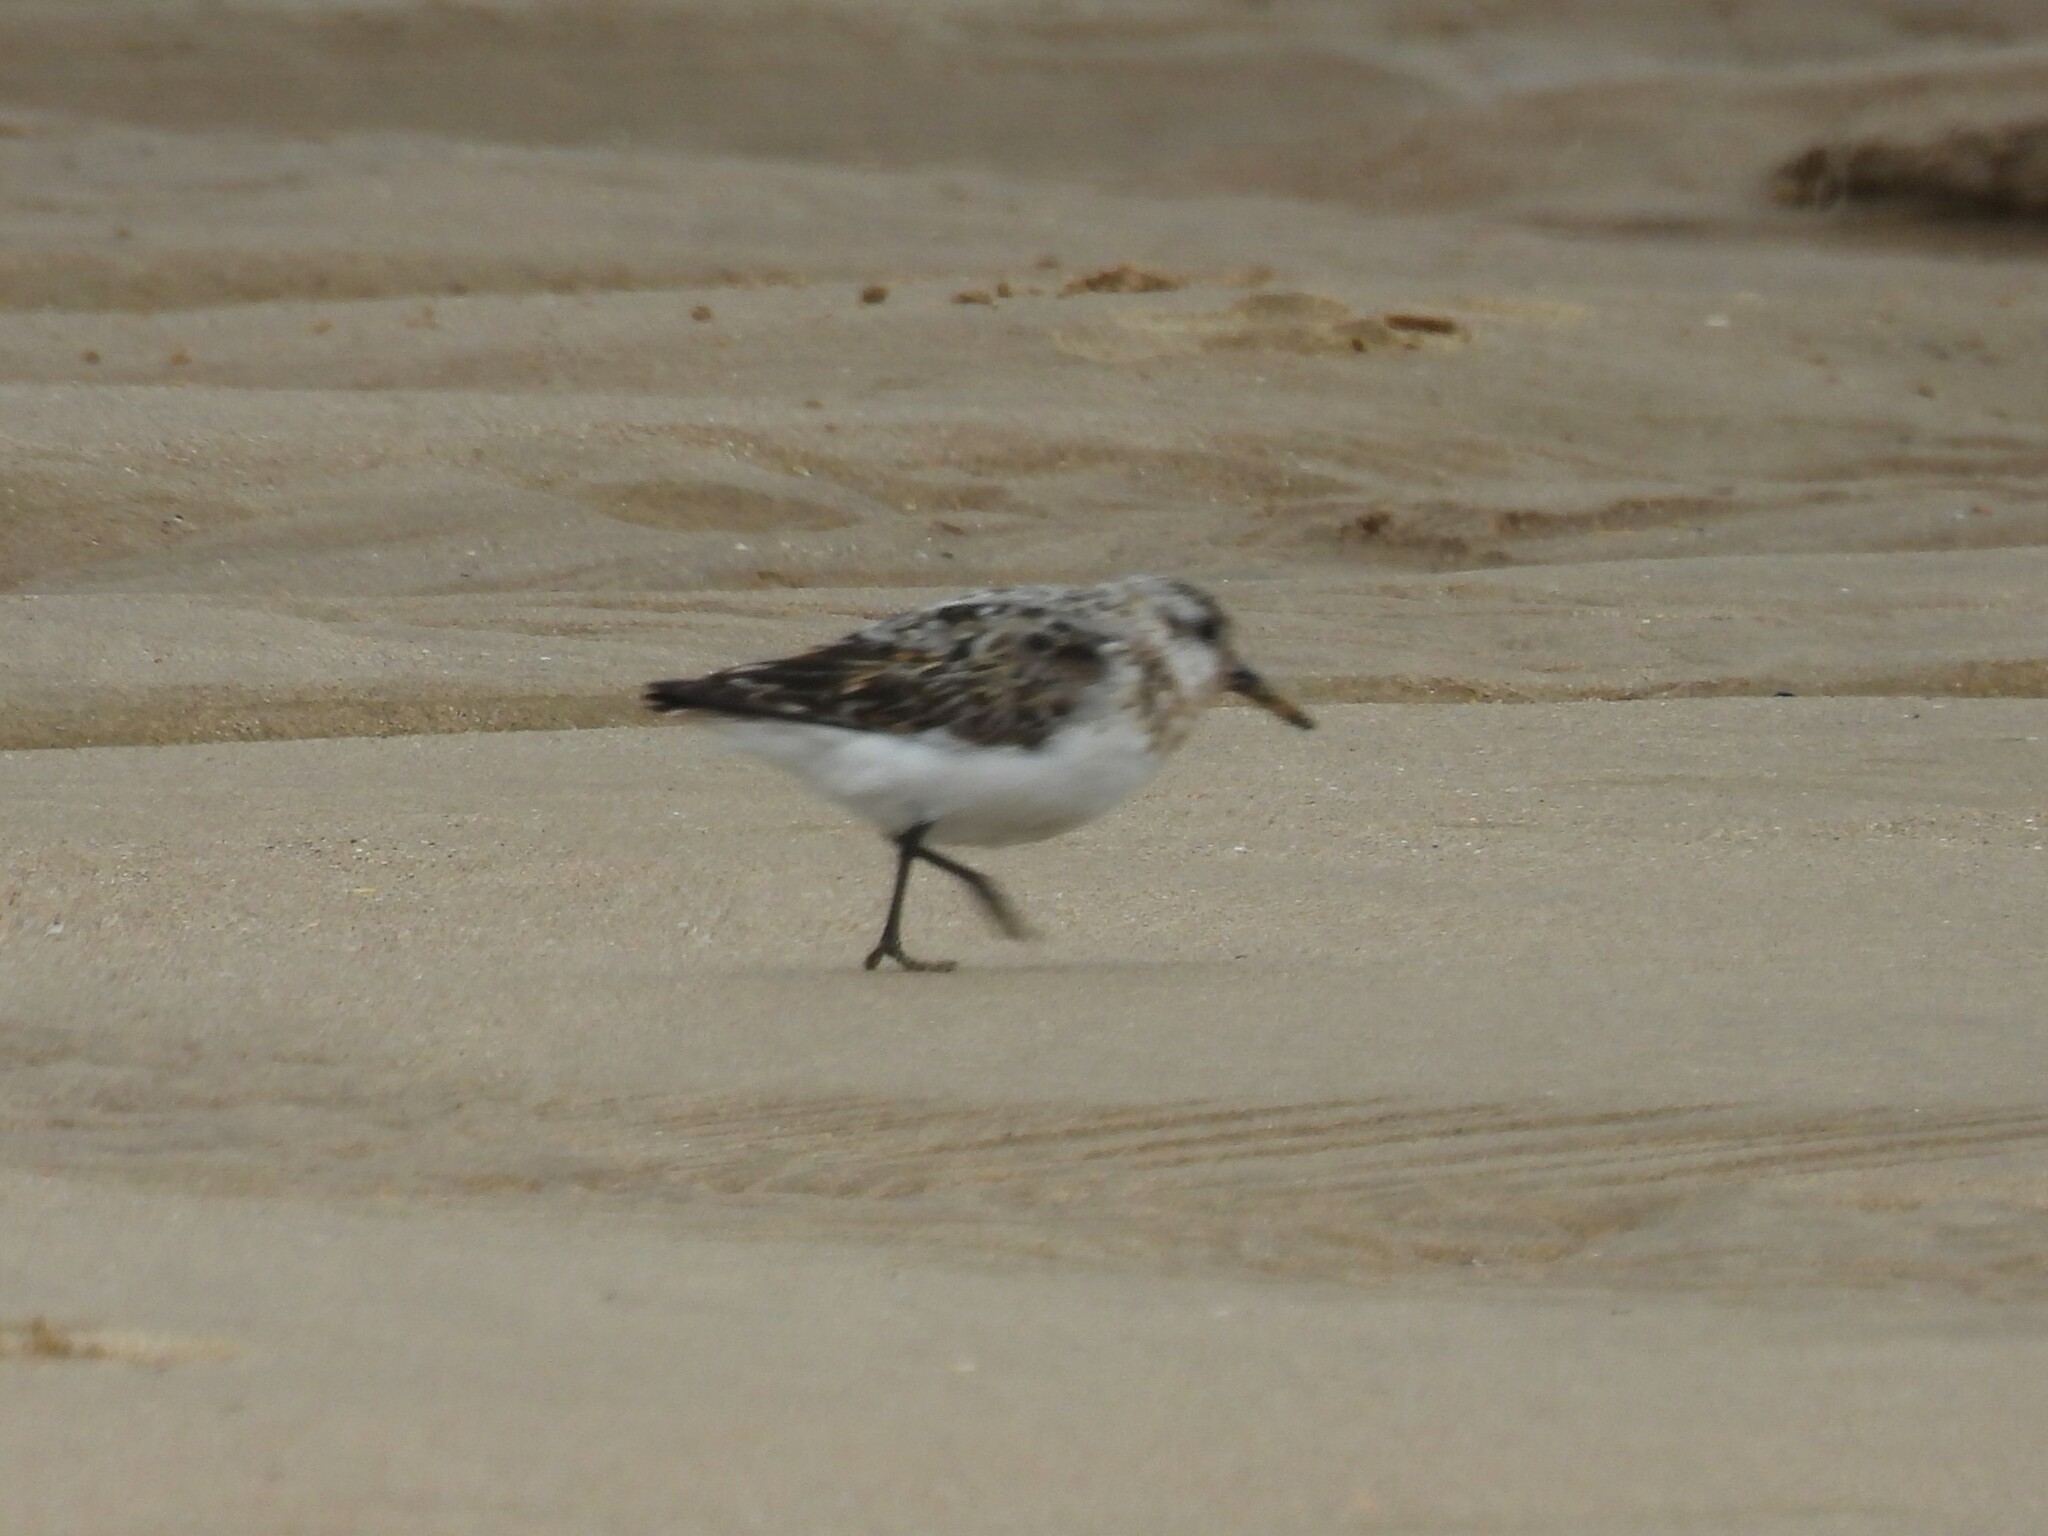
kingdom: Animalia
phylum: Chordata
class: Aves
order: Charadriiformes
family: Scolopacidae
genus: Calidris
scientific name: Calidris alba
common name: Sanderling
